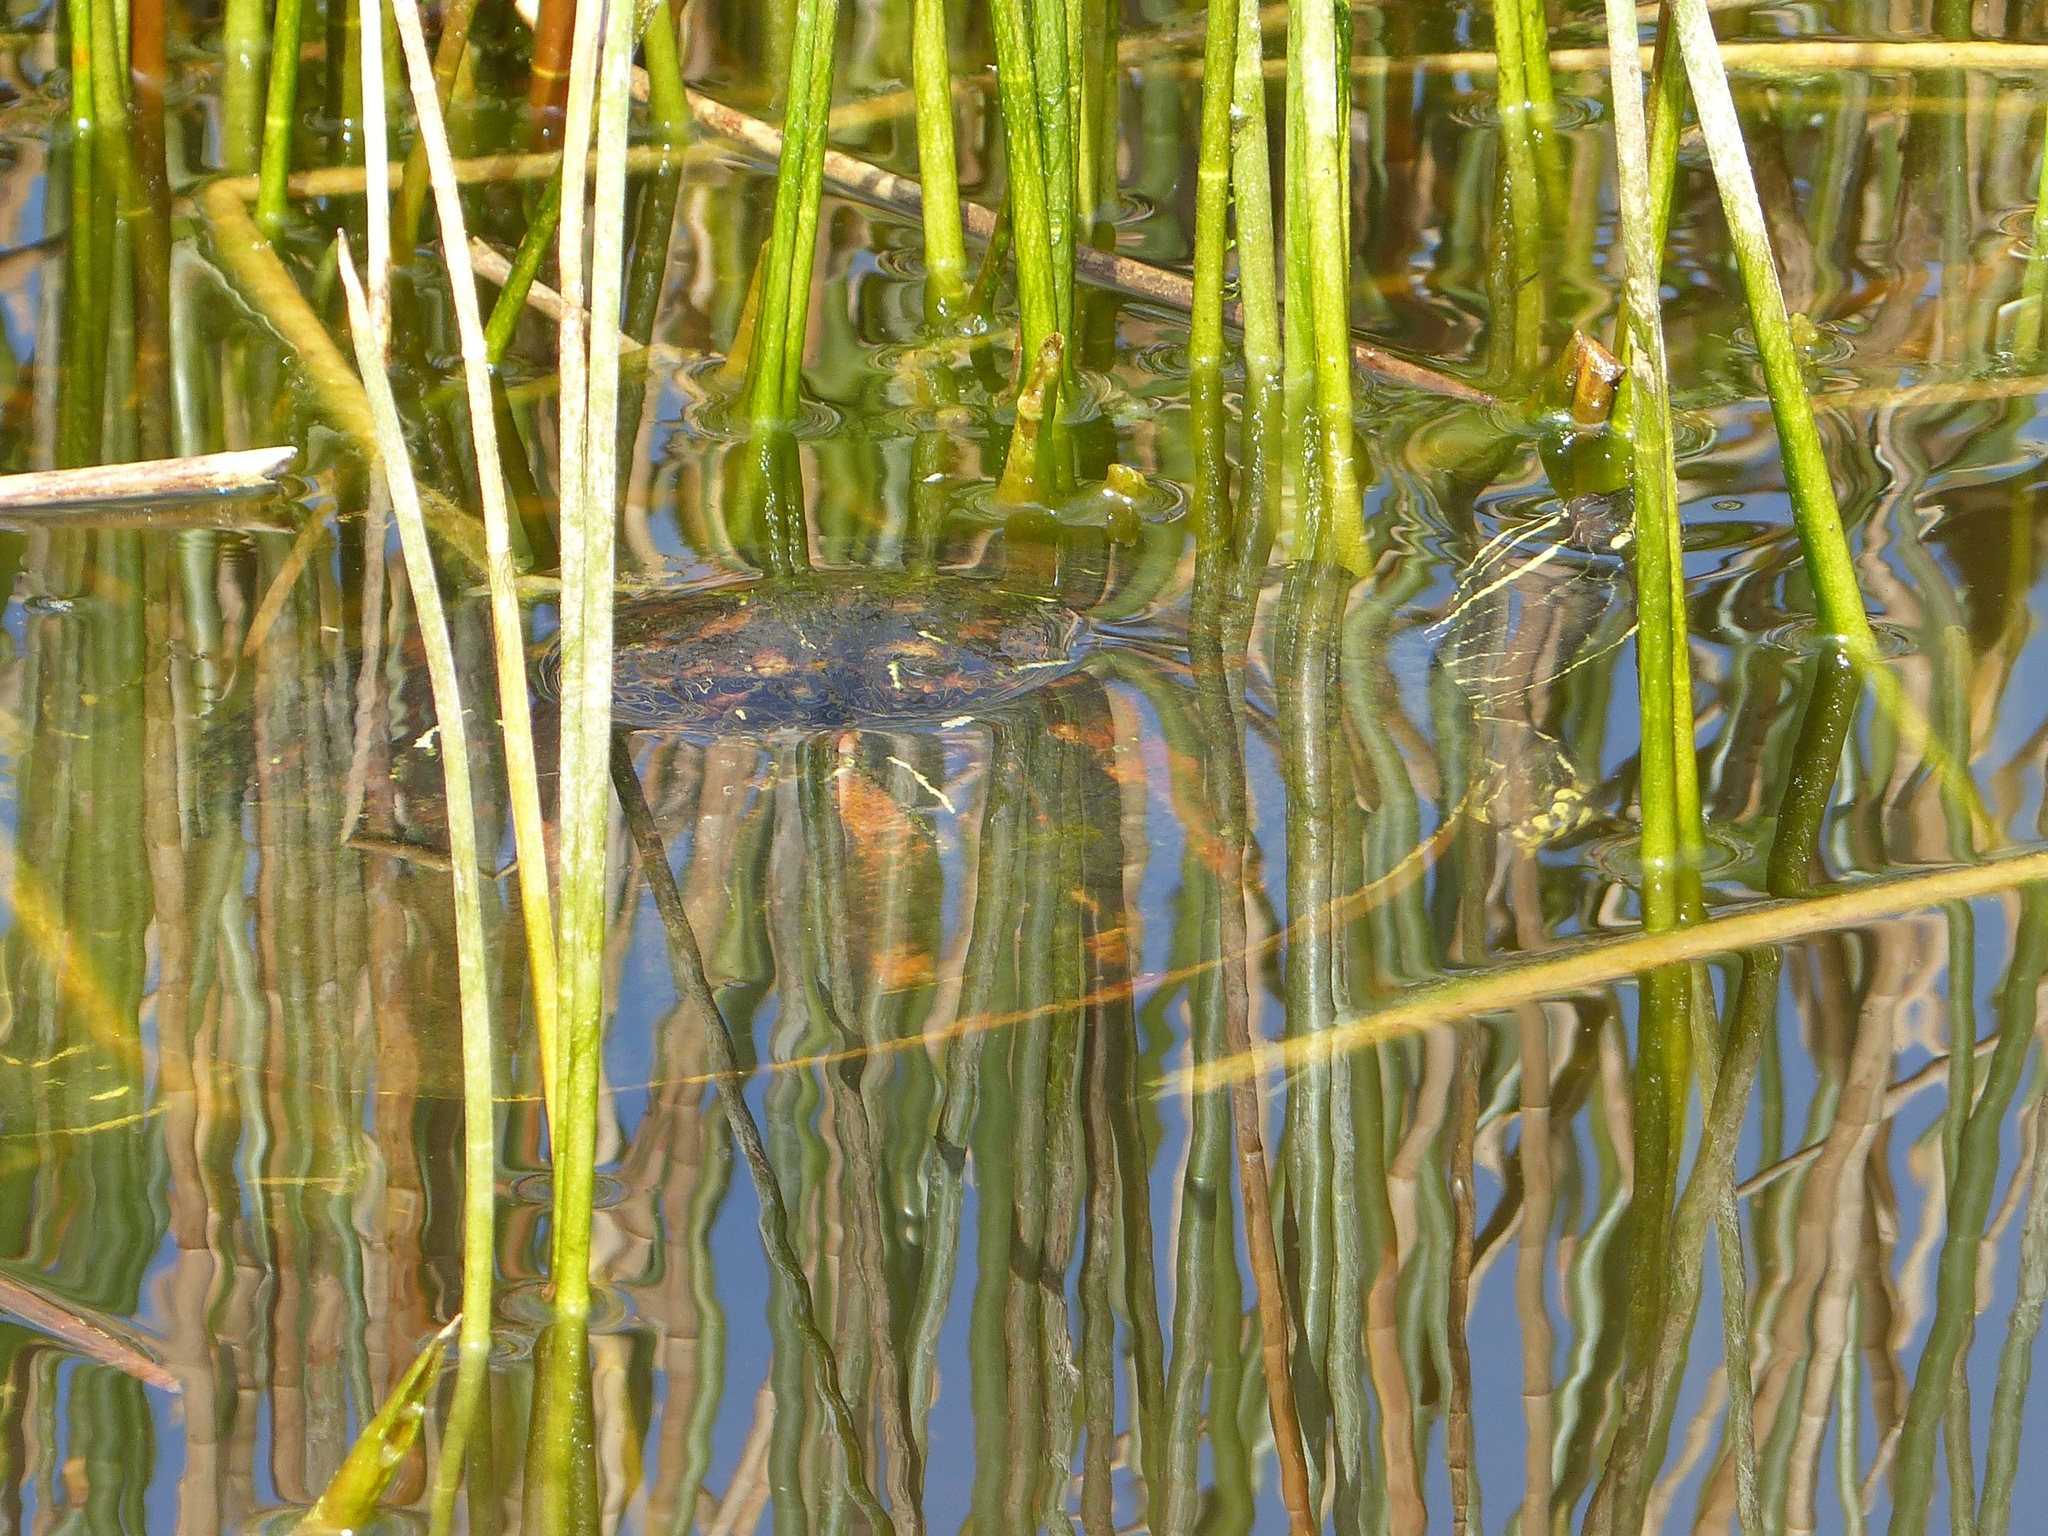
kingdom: Animalia
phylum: Chordata
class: Testudines
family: Emydidae
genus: Pseudemys
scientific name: Pseudemys nelsoni
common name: Florida red-bellied turtle
